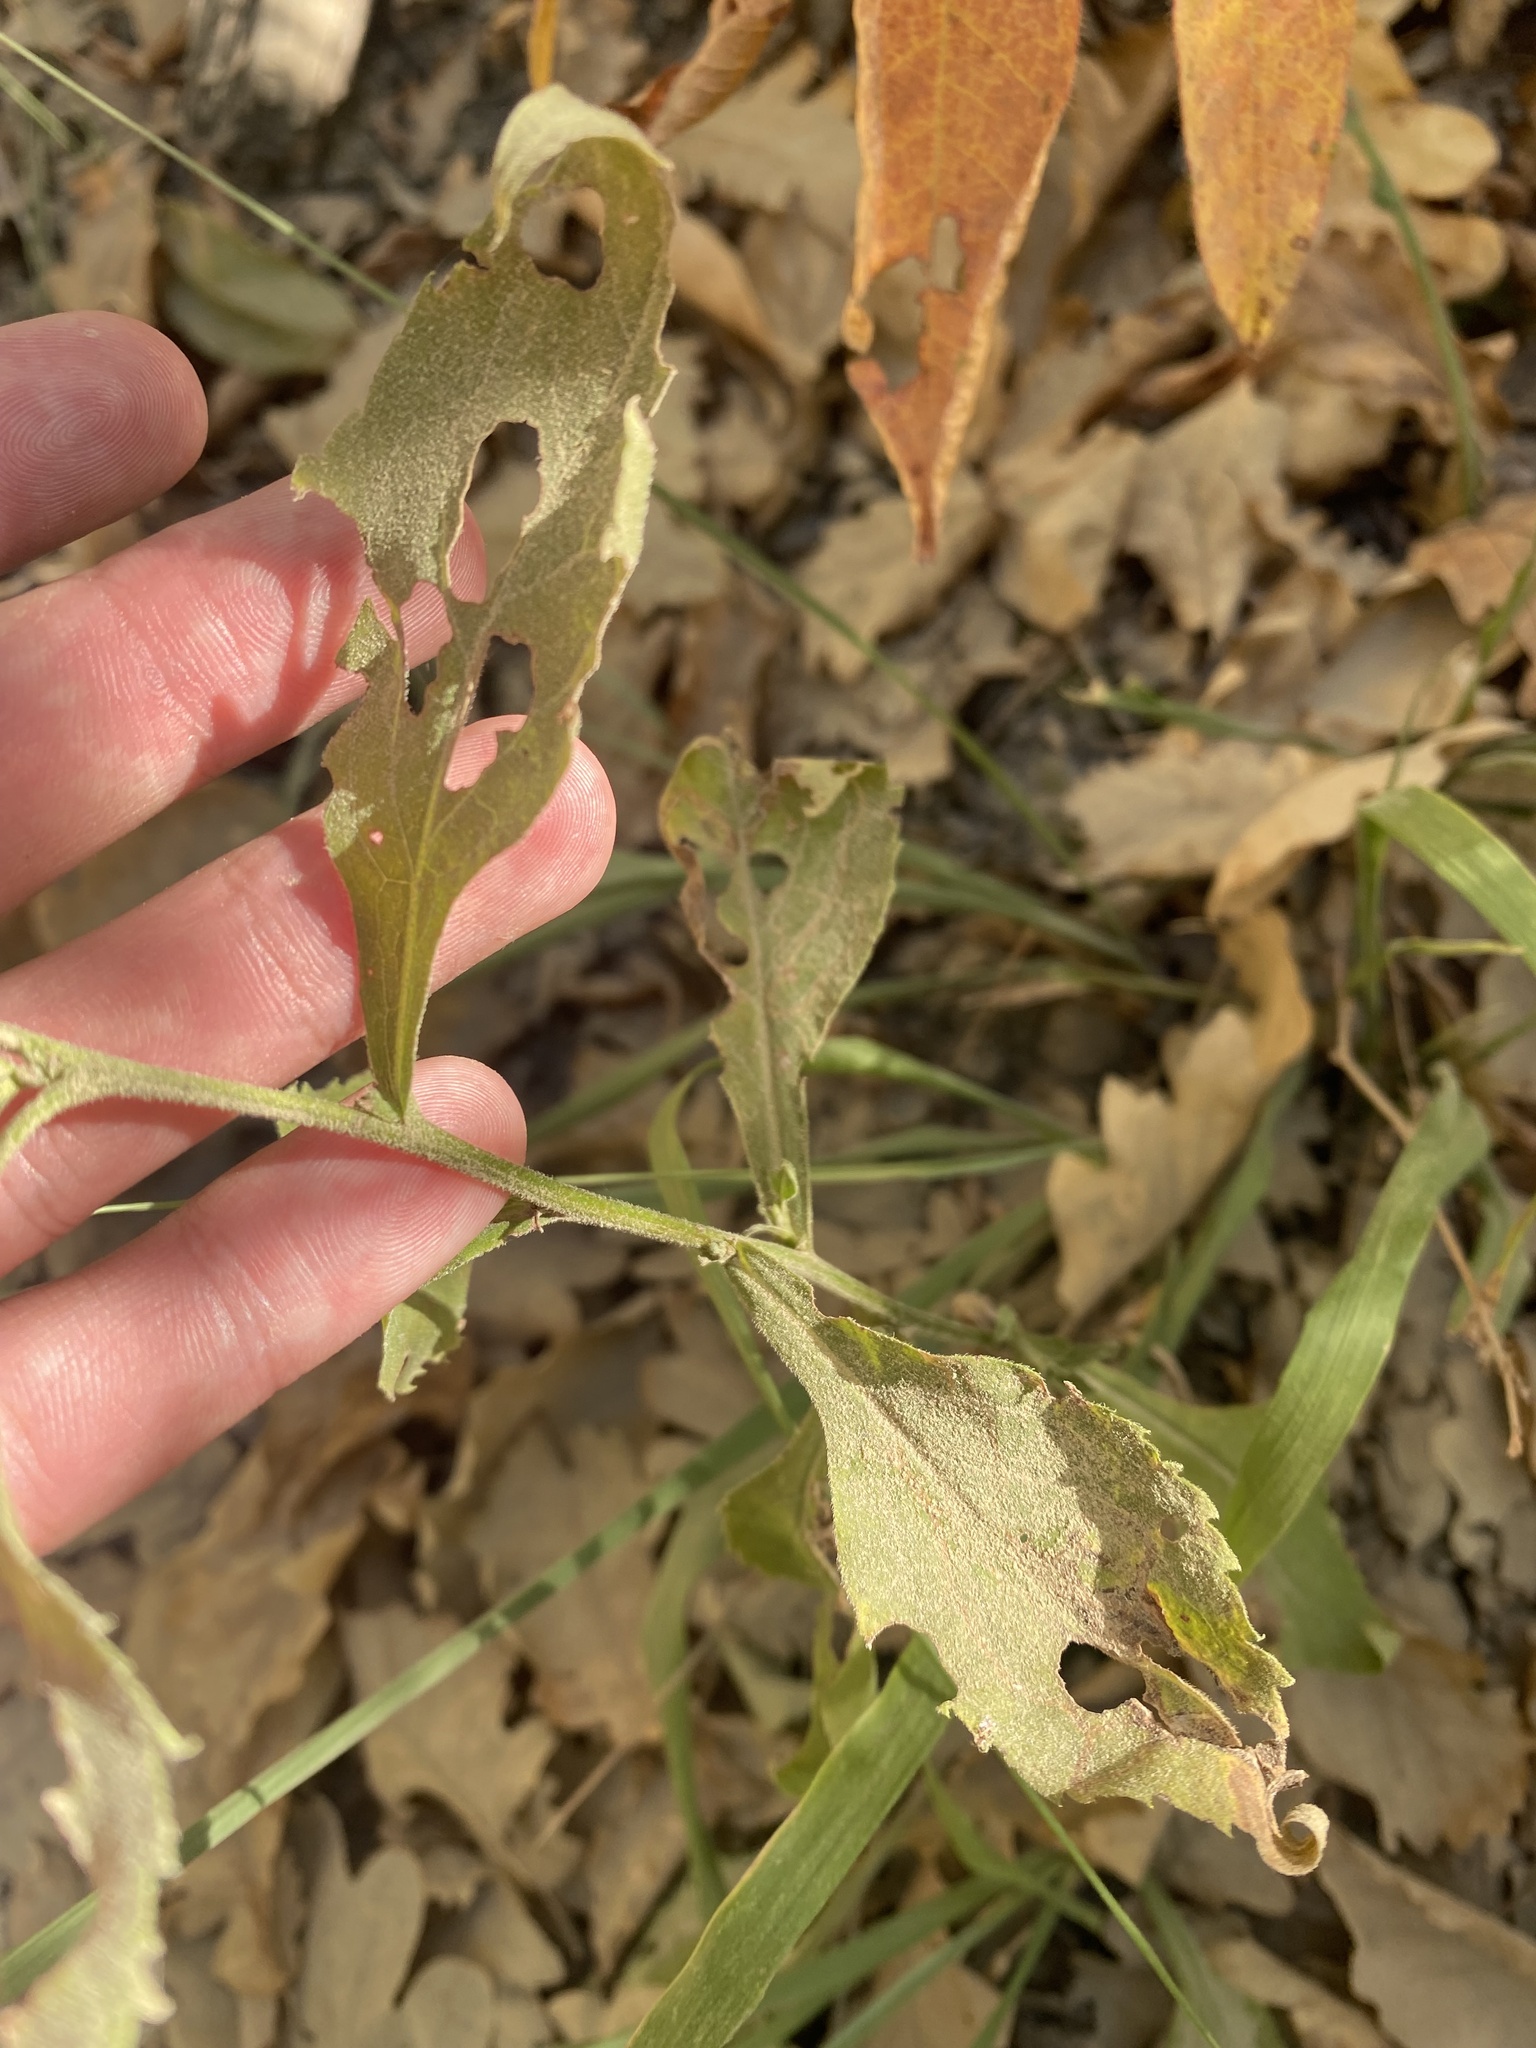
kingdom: Plantae
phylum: Tracheophyta
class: Magnoliopsida
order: Asterales
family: Asteraceae
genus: Solidago
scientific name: Solidago virgaurea
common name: Goldenrod
